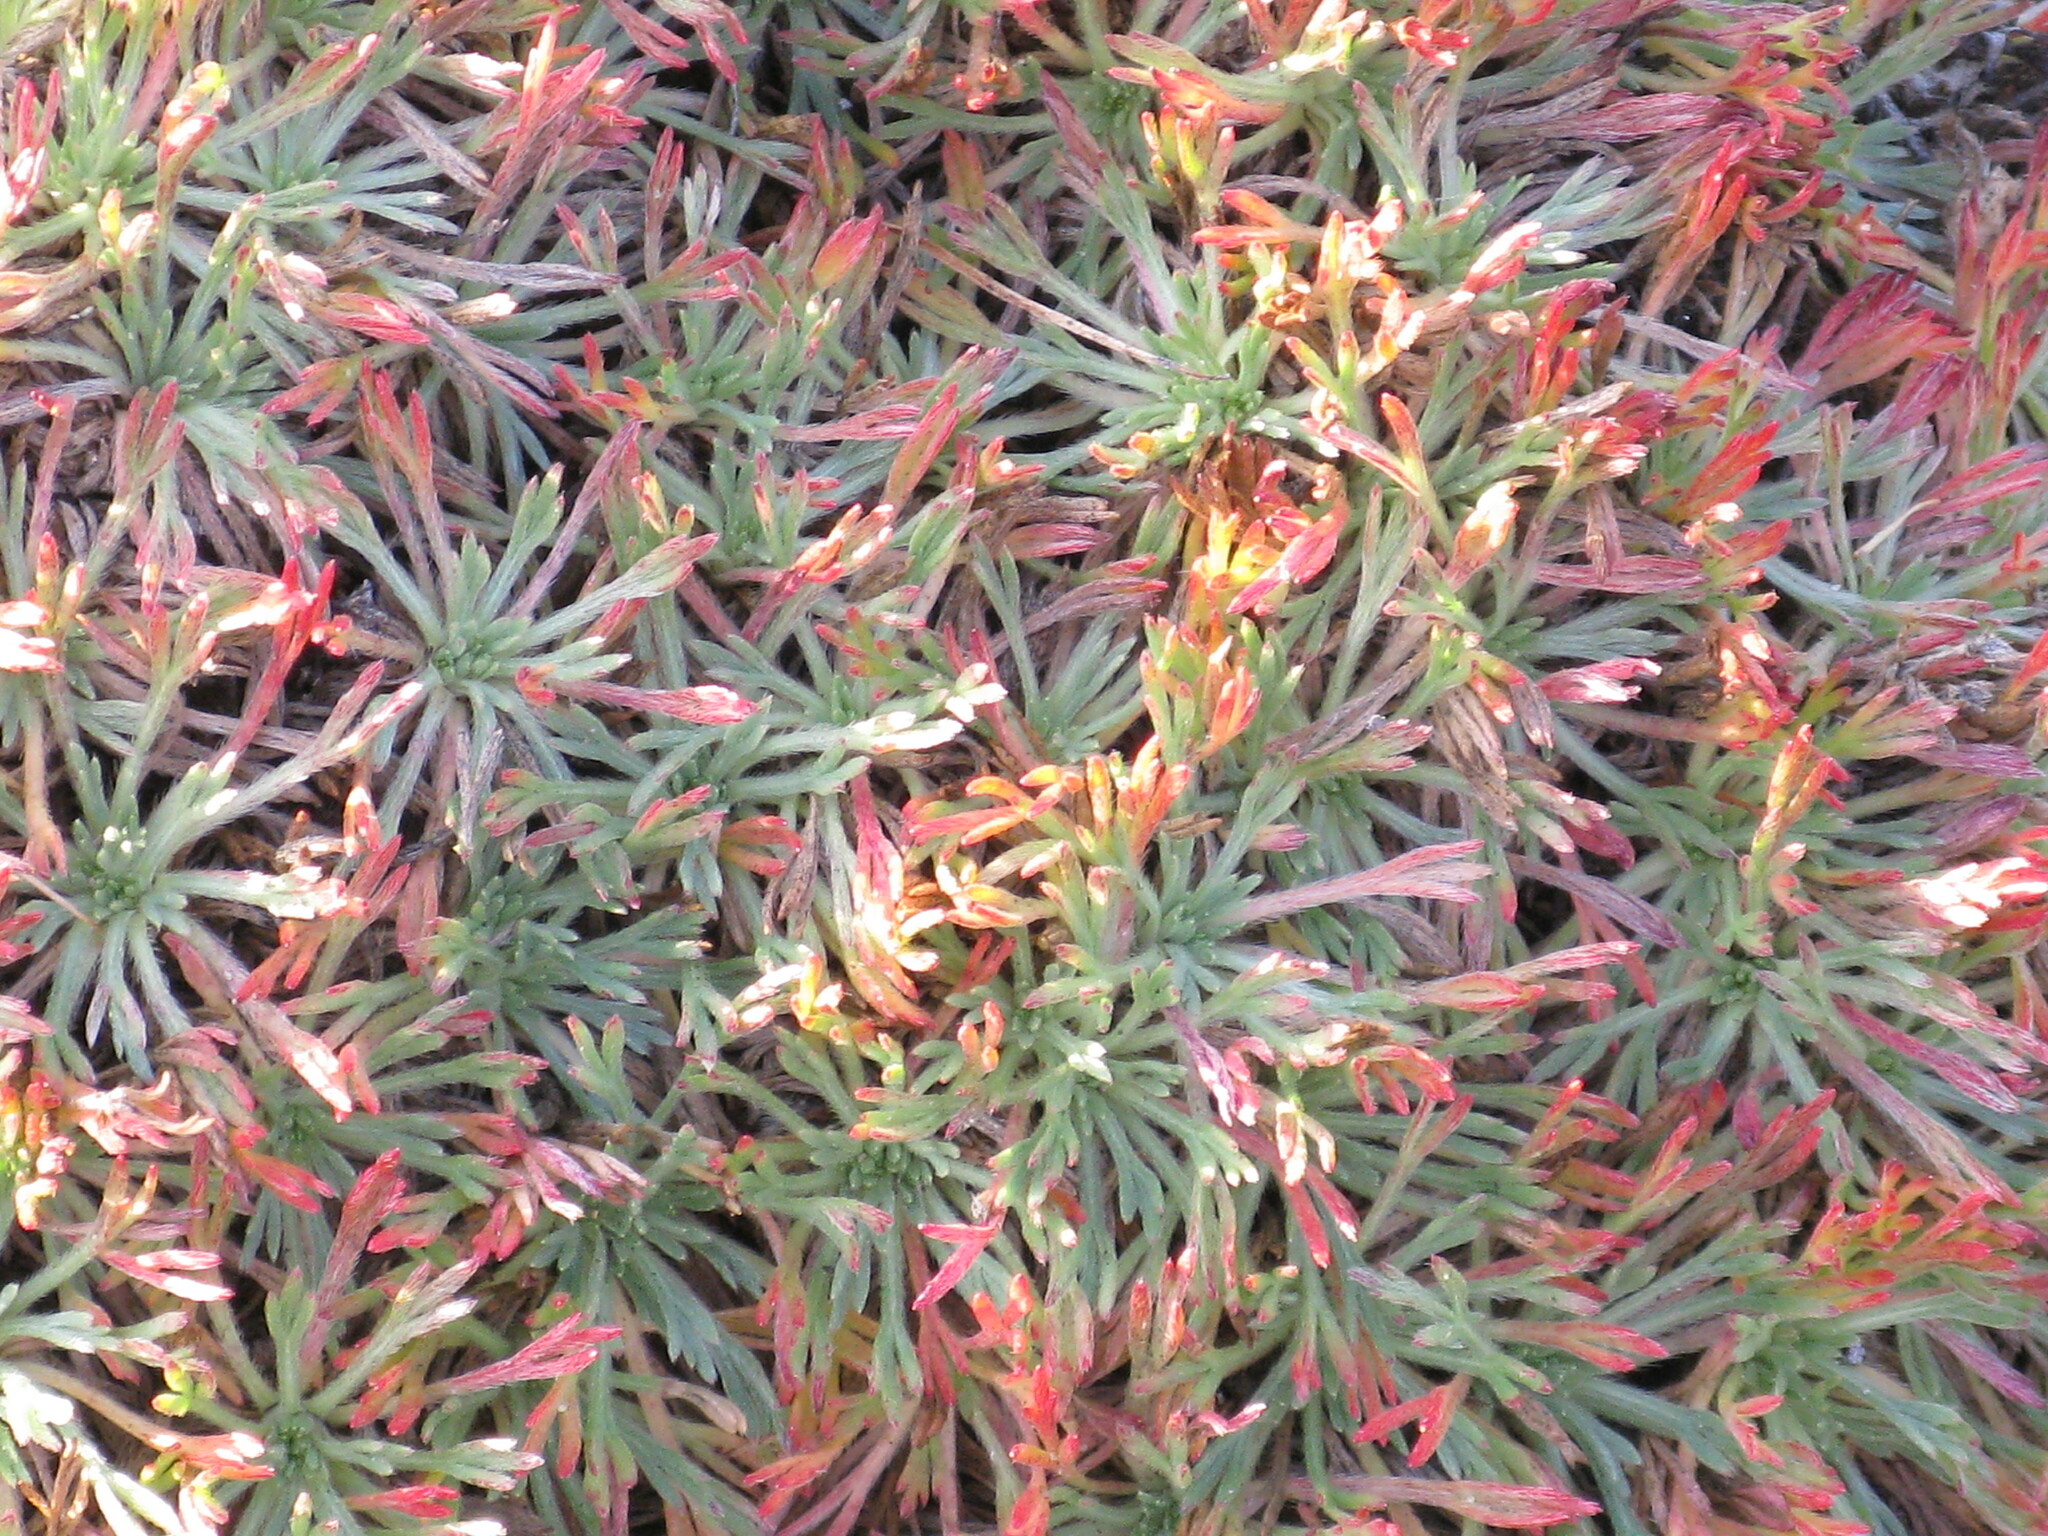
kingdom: Plantae
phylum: Tracheophyta
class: Magnoliopsida
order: Rosales
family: Rosaceae
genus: Chamaerhodos
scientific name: Chamaerhodos altaica
